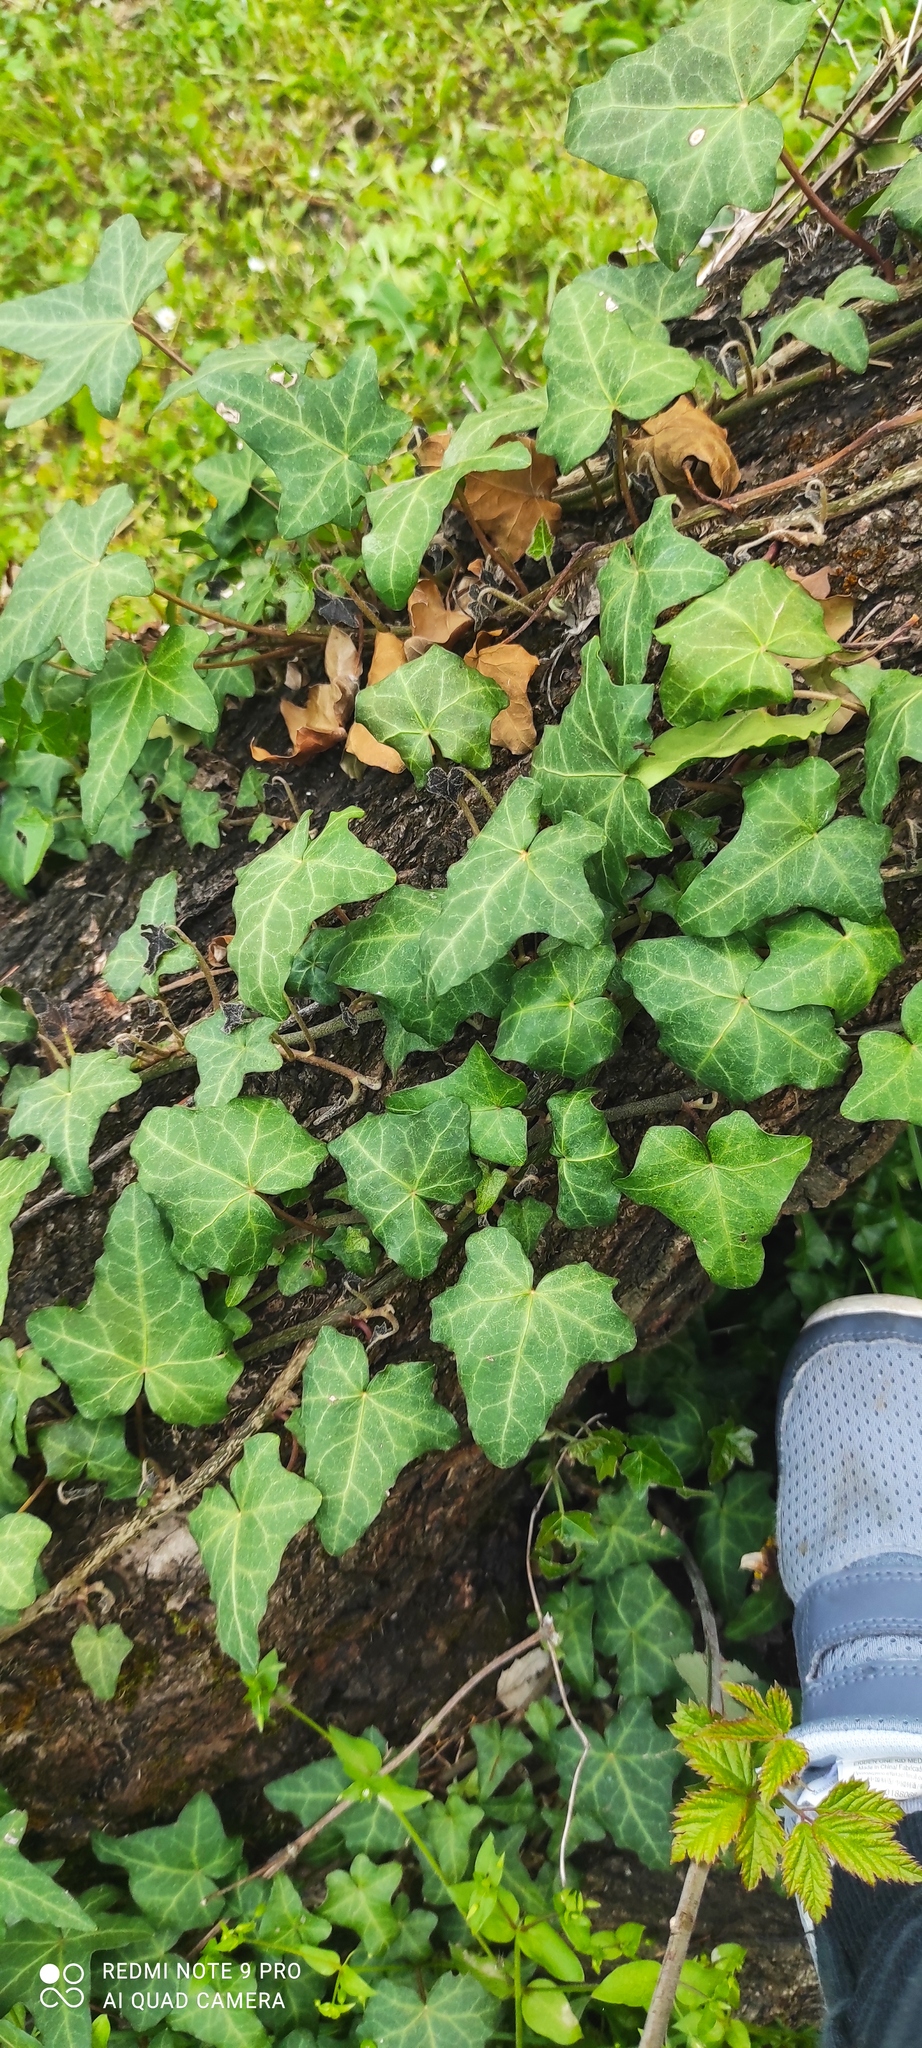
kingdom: Plantae
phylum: Tracheophyta
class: Magnoliopsida
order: Apiales
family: Araliaceae
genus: Hedera
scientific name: Hedera helix
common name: Ivy
